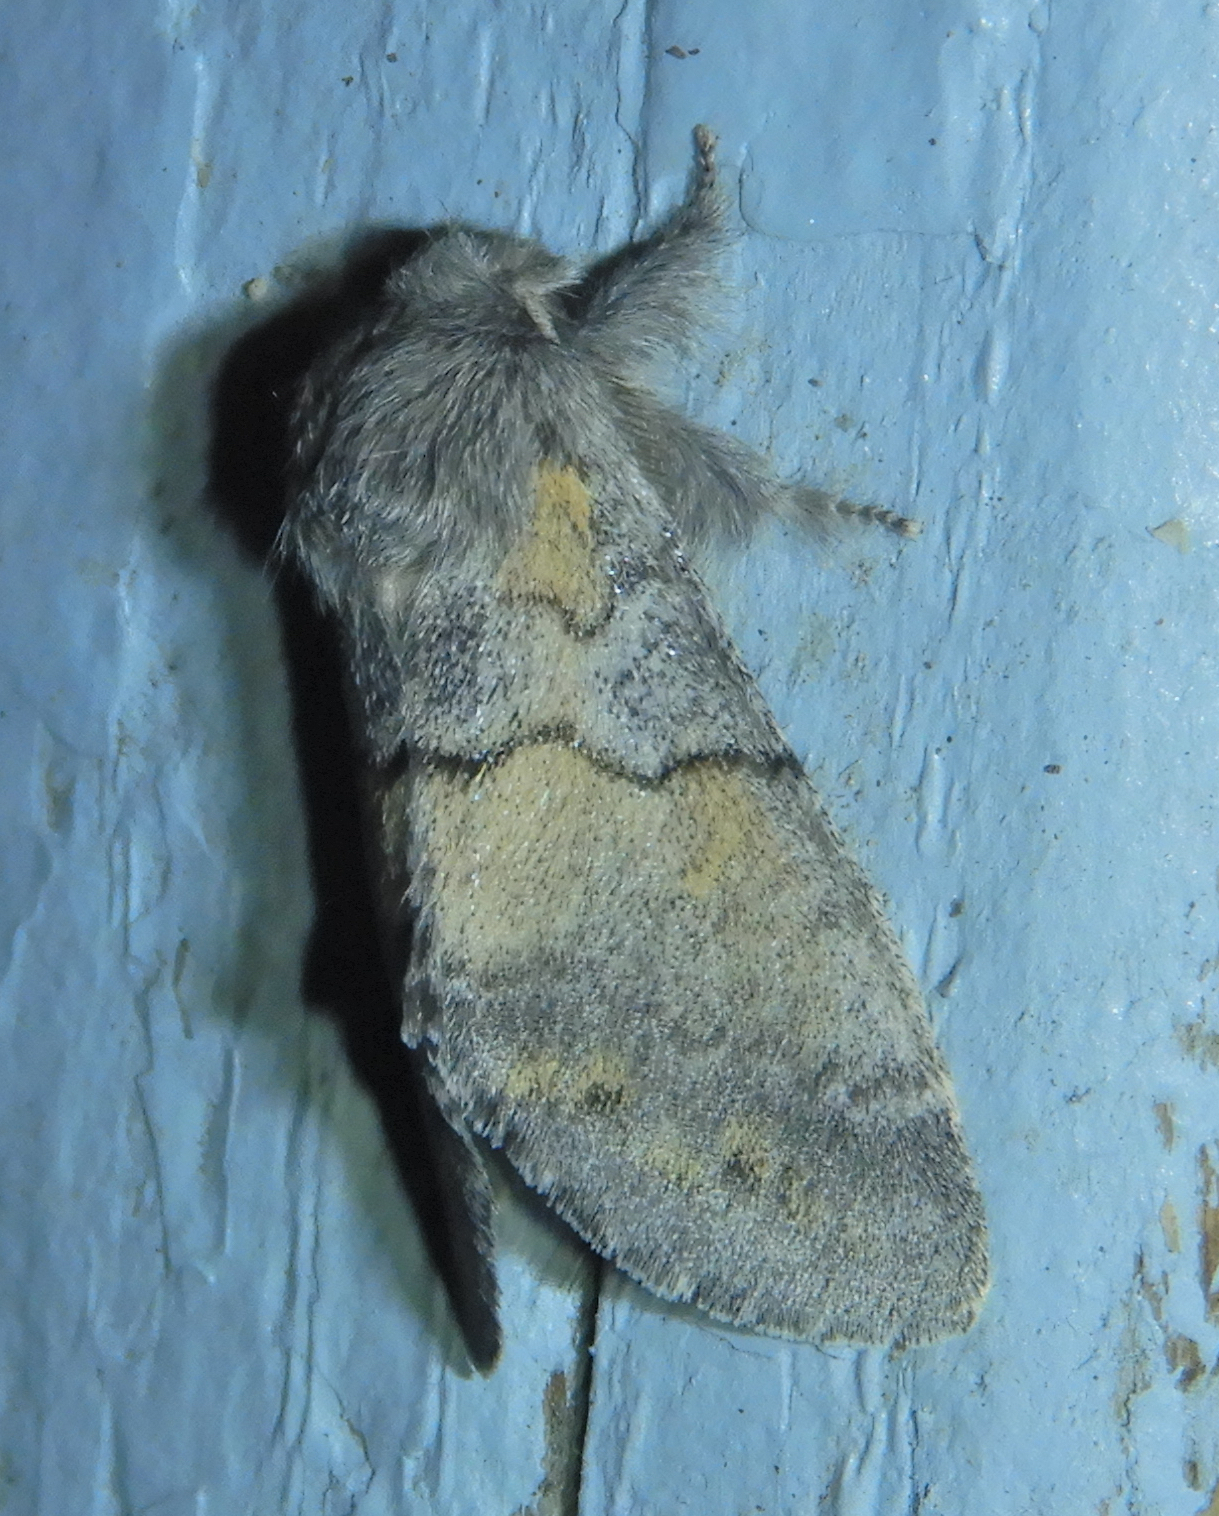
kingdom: Animalia
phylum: Arthropoda
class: Insecta
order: Lepidoptera
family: Notodontidae
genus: Gluphisia
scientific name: Gluphisia lintneri
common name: Lintner's gluphisia moth
